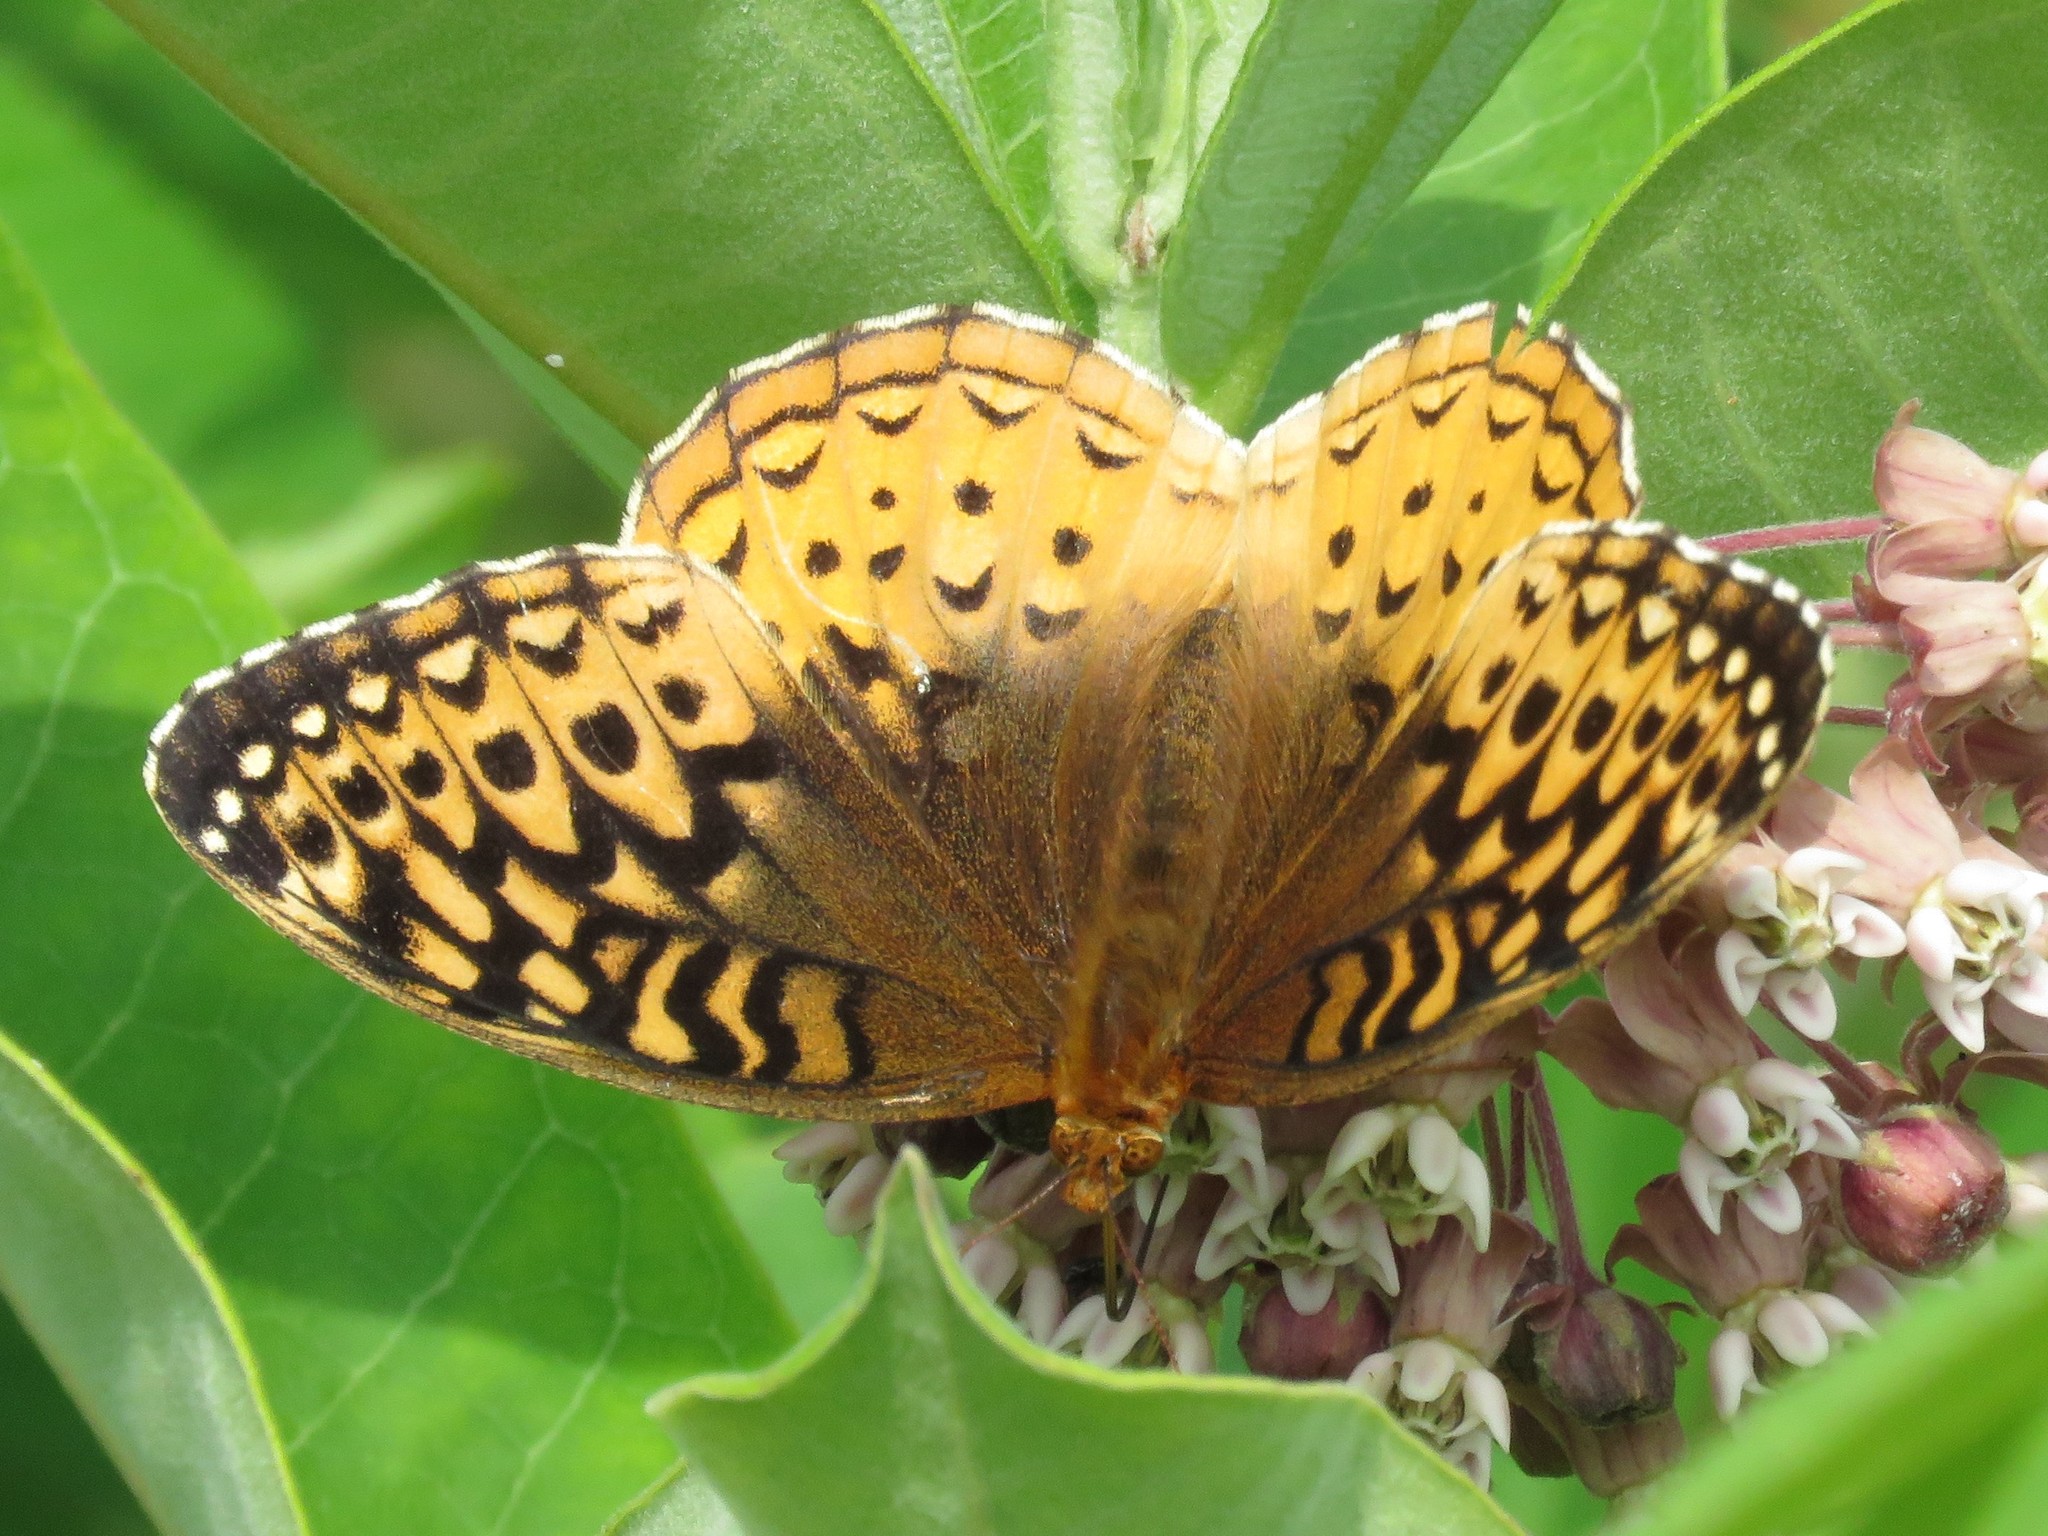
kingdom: Animalia
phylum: Arthropoda
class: Insecta
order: Lepidoptera
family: Nymphalidae
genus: Speyeria
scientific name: Speyeria cybele
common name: Great spangled fritillary
